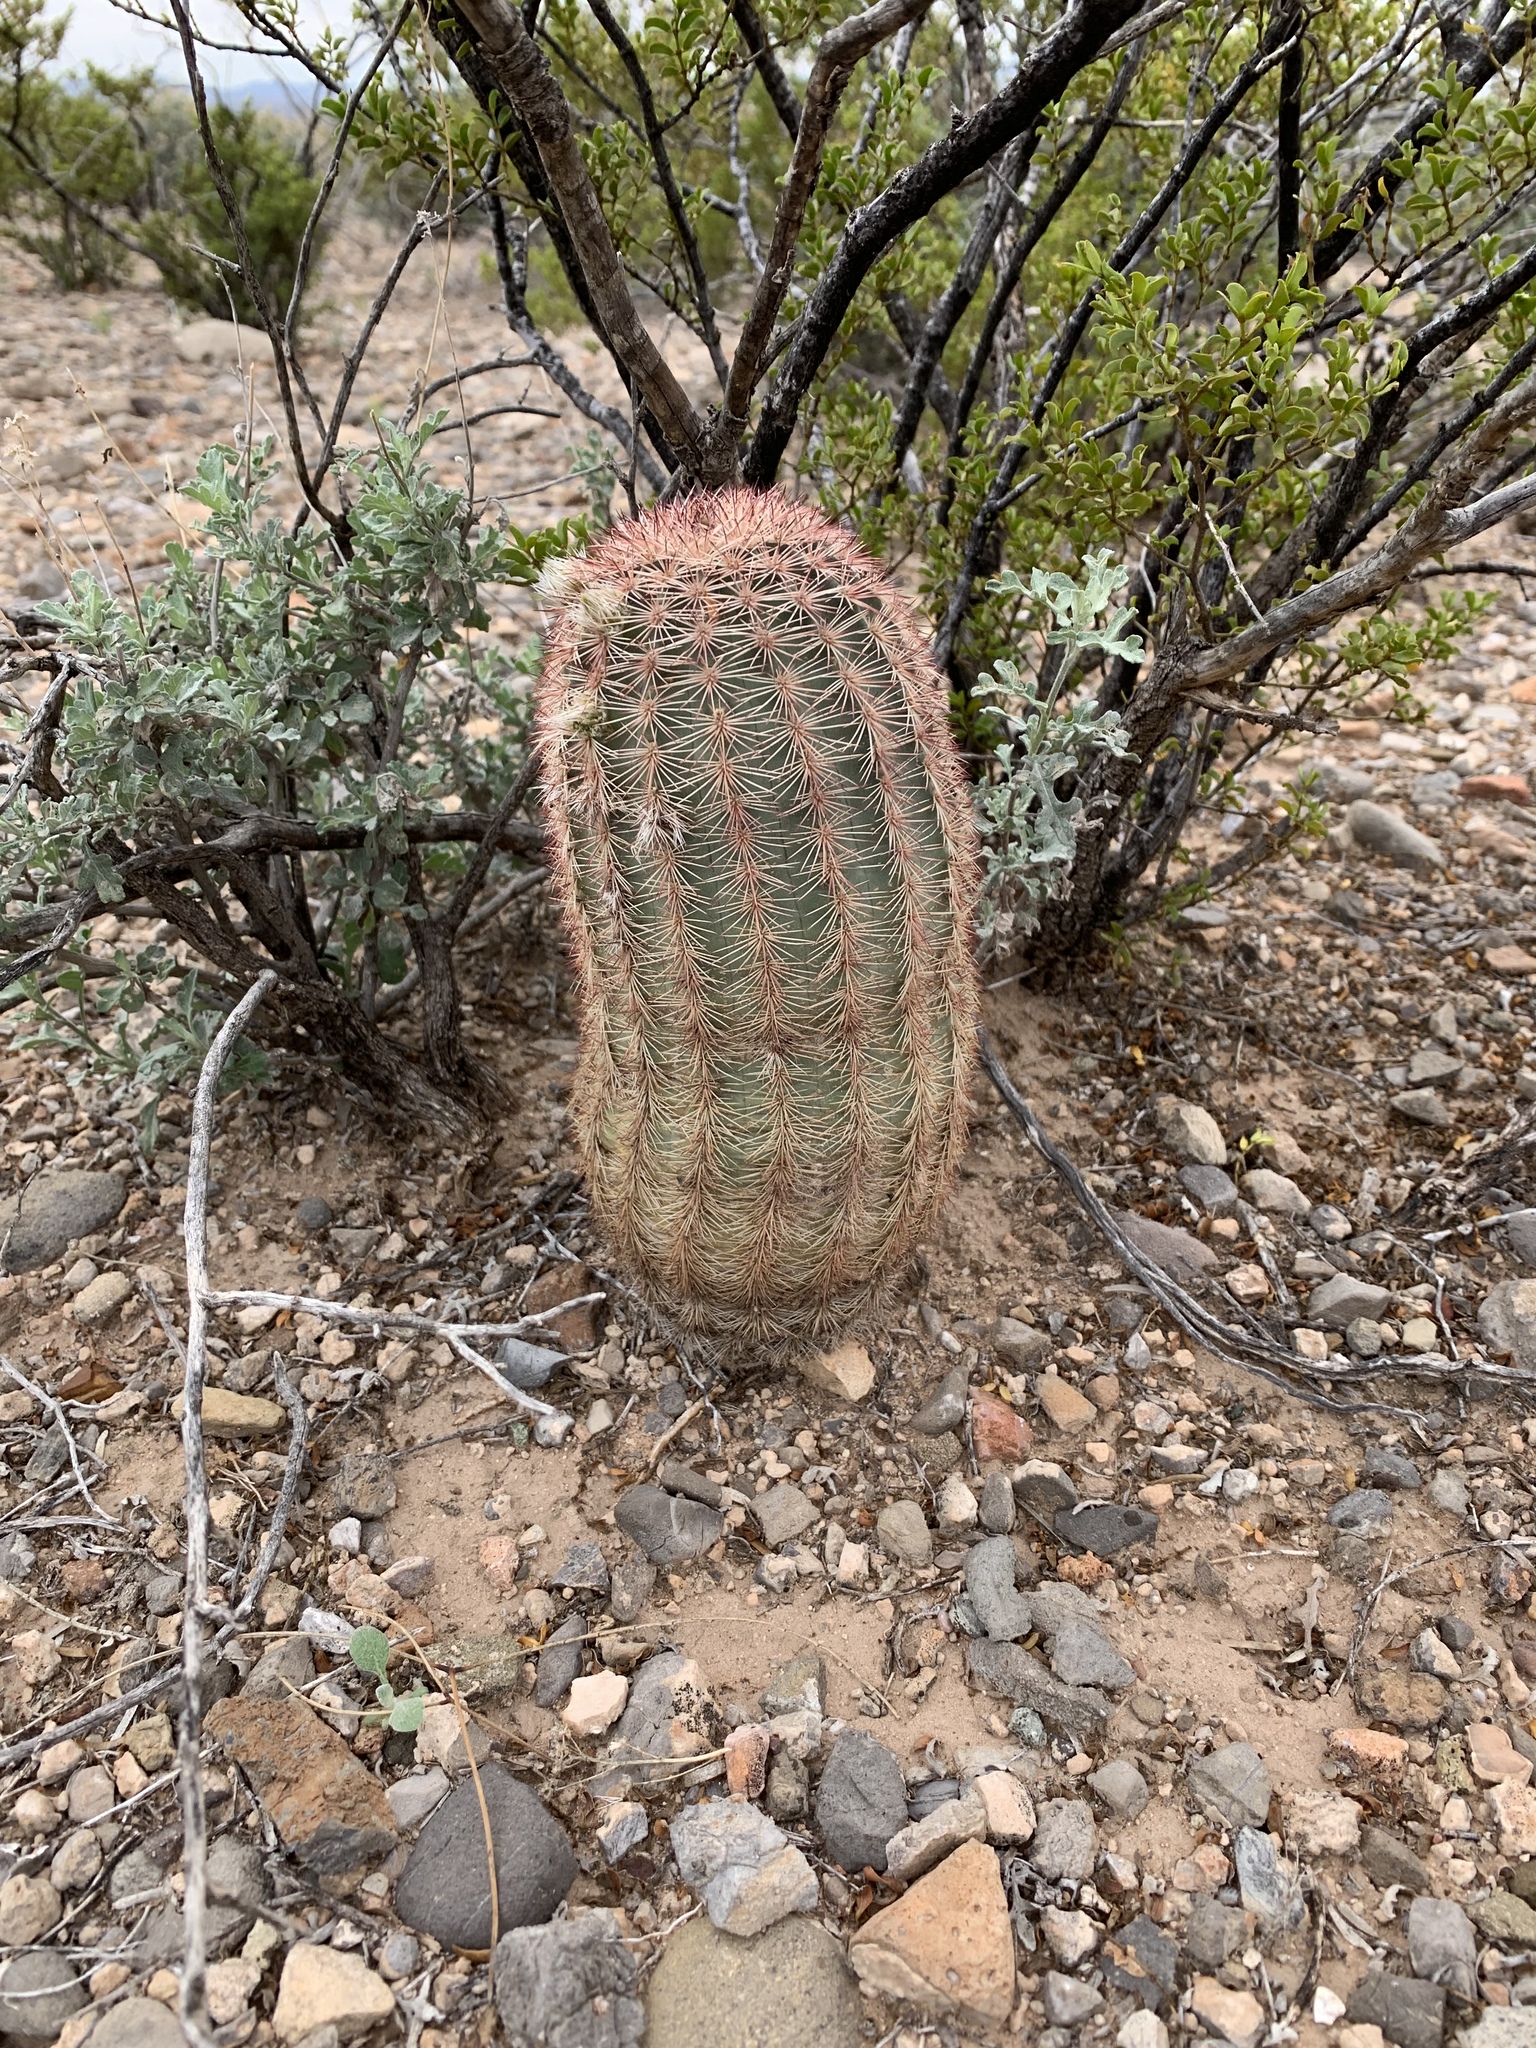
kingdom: Plantae
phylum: Tracheophyta
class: Magnoliopsida
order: Caryophyllales
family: Cactaceae
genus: Echinocereus
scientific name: Echinocereus dasyacanthus
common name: Spiny hedgehog cactus
